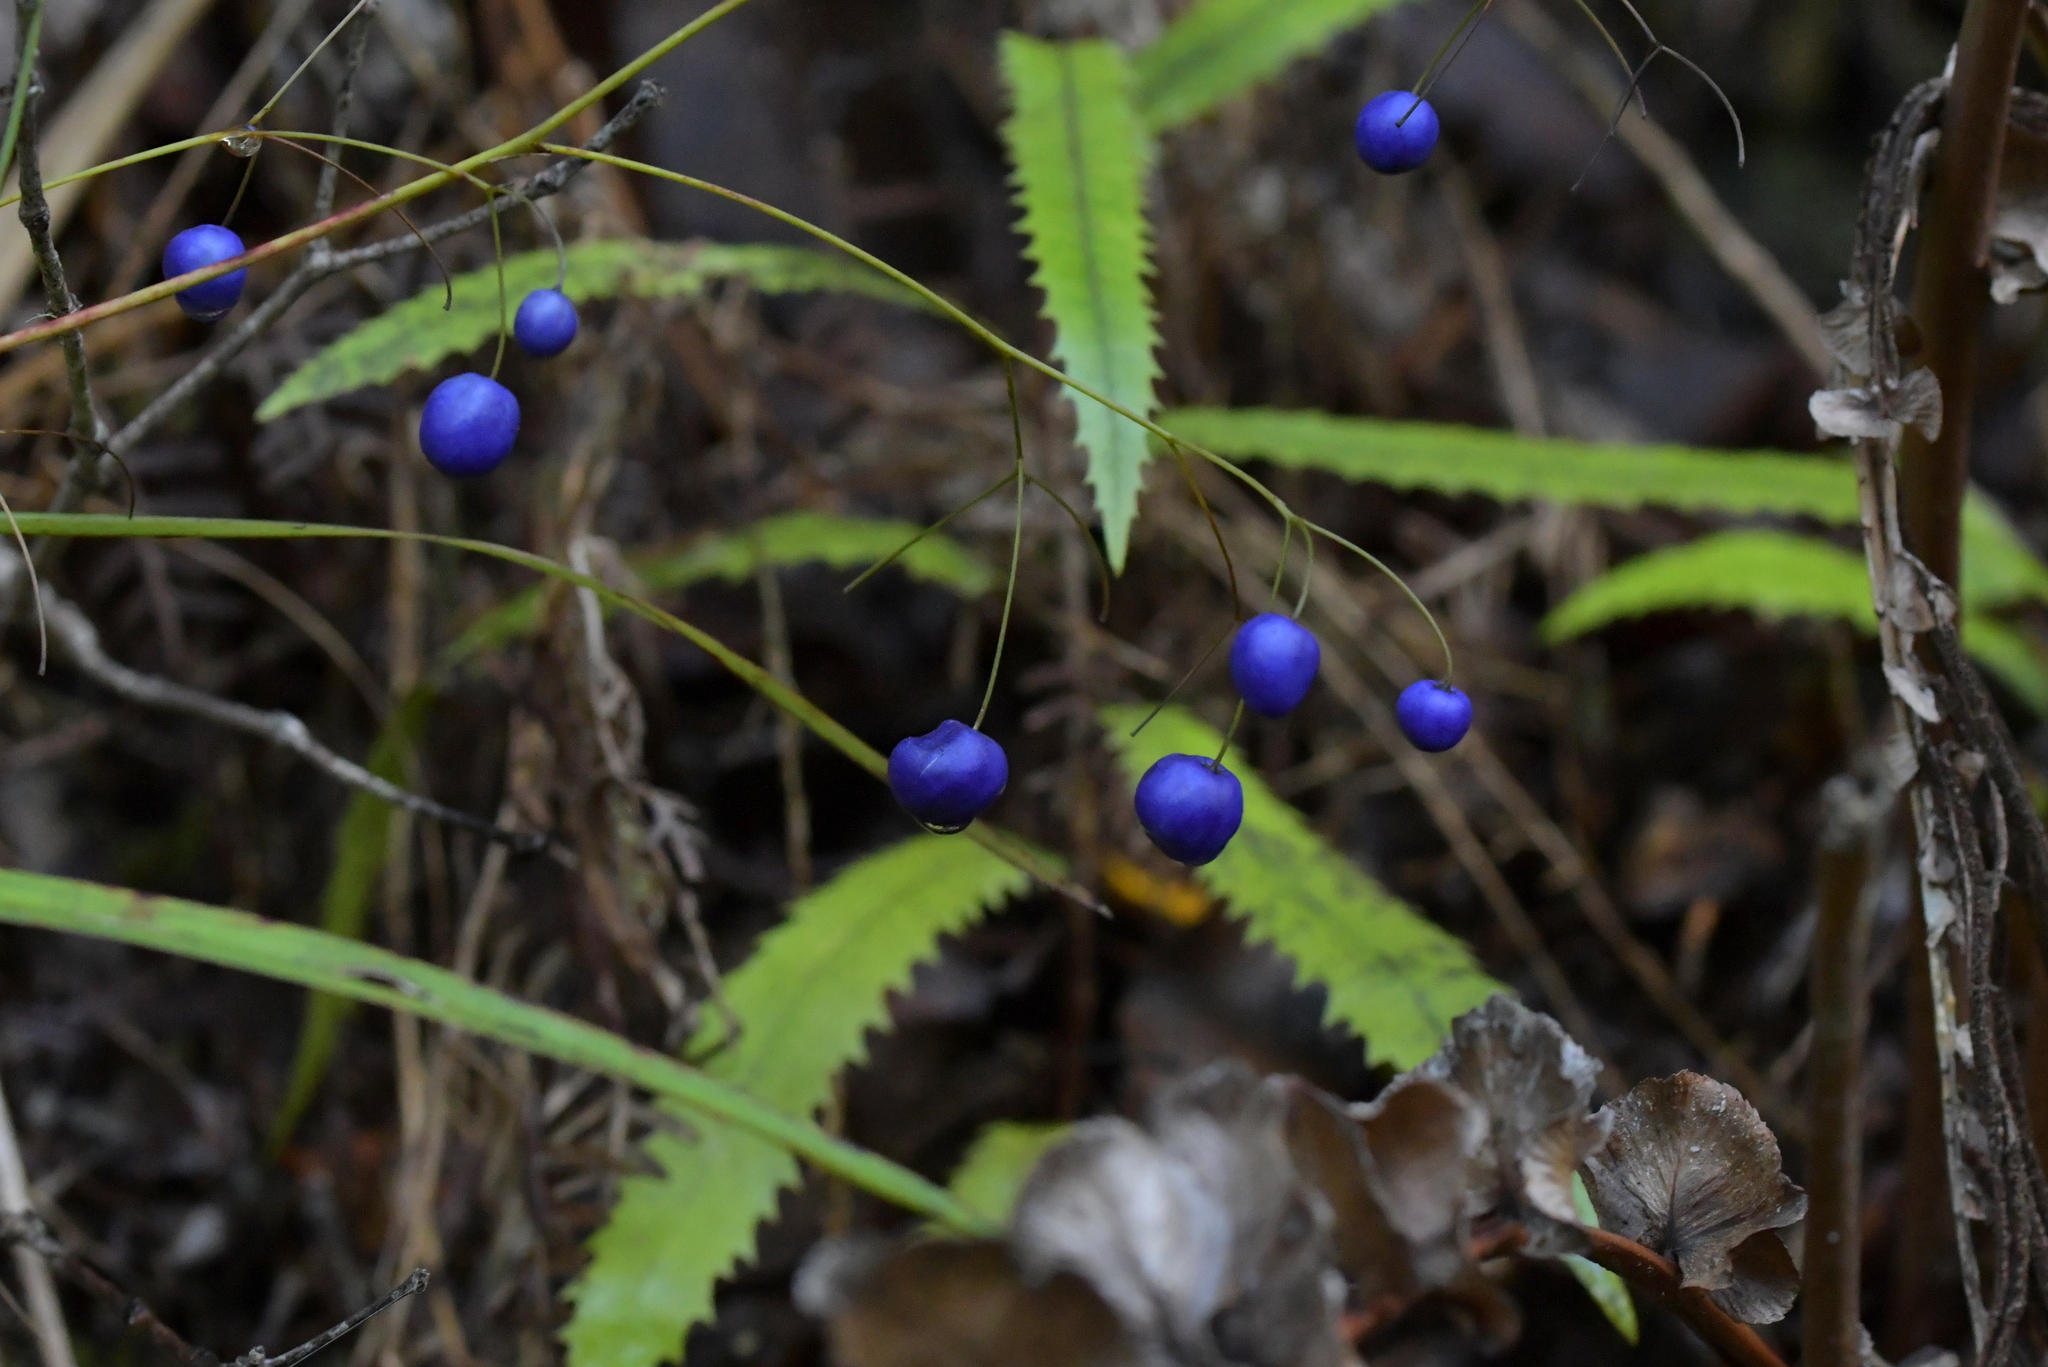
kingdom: Plantae
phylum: Tracheophyta
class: Liliopsida
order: Asparagales
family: Asphodelaceae
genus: Dianella
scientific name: Dianella nigra
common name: New zealand-blueberry
